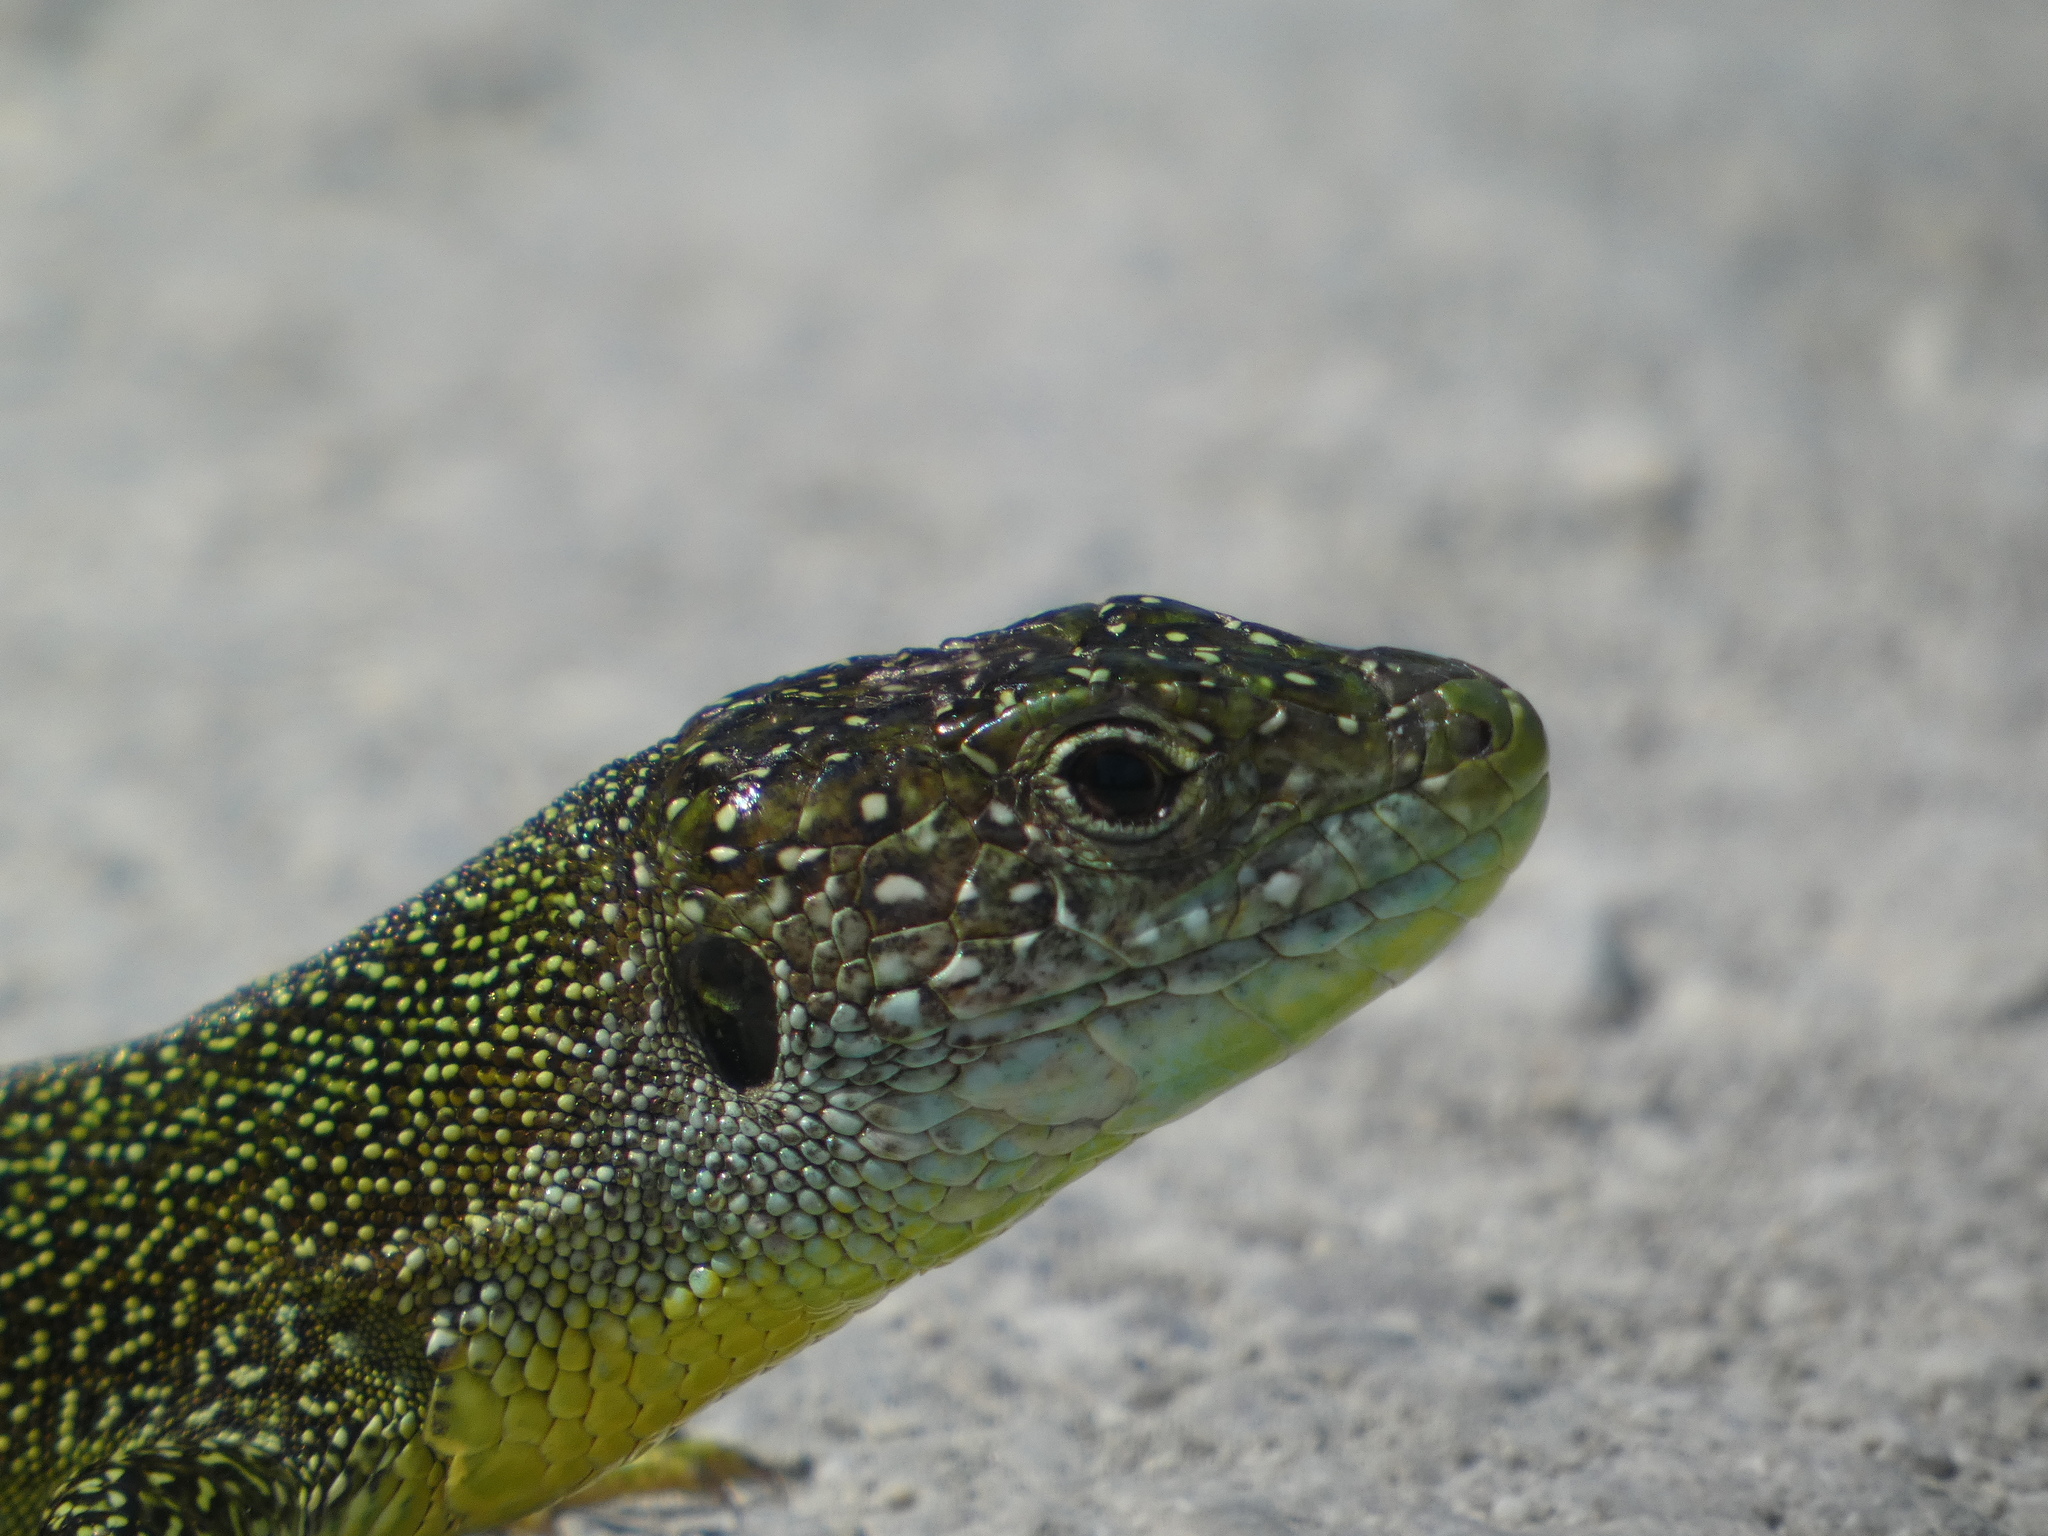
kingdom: Animalia
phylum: Chordata
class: Squamata
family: Lacertidae
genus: Lacerta
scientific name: Lacerta bilineata
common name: Western green lizard
